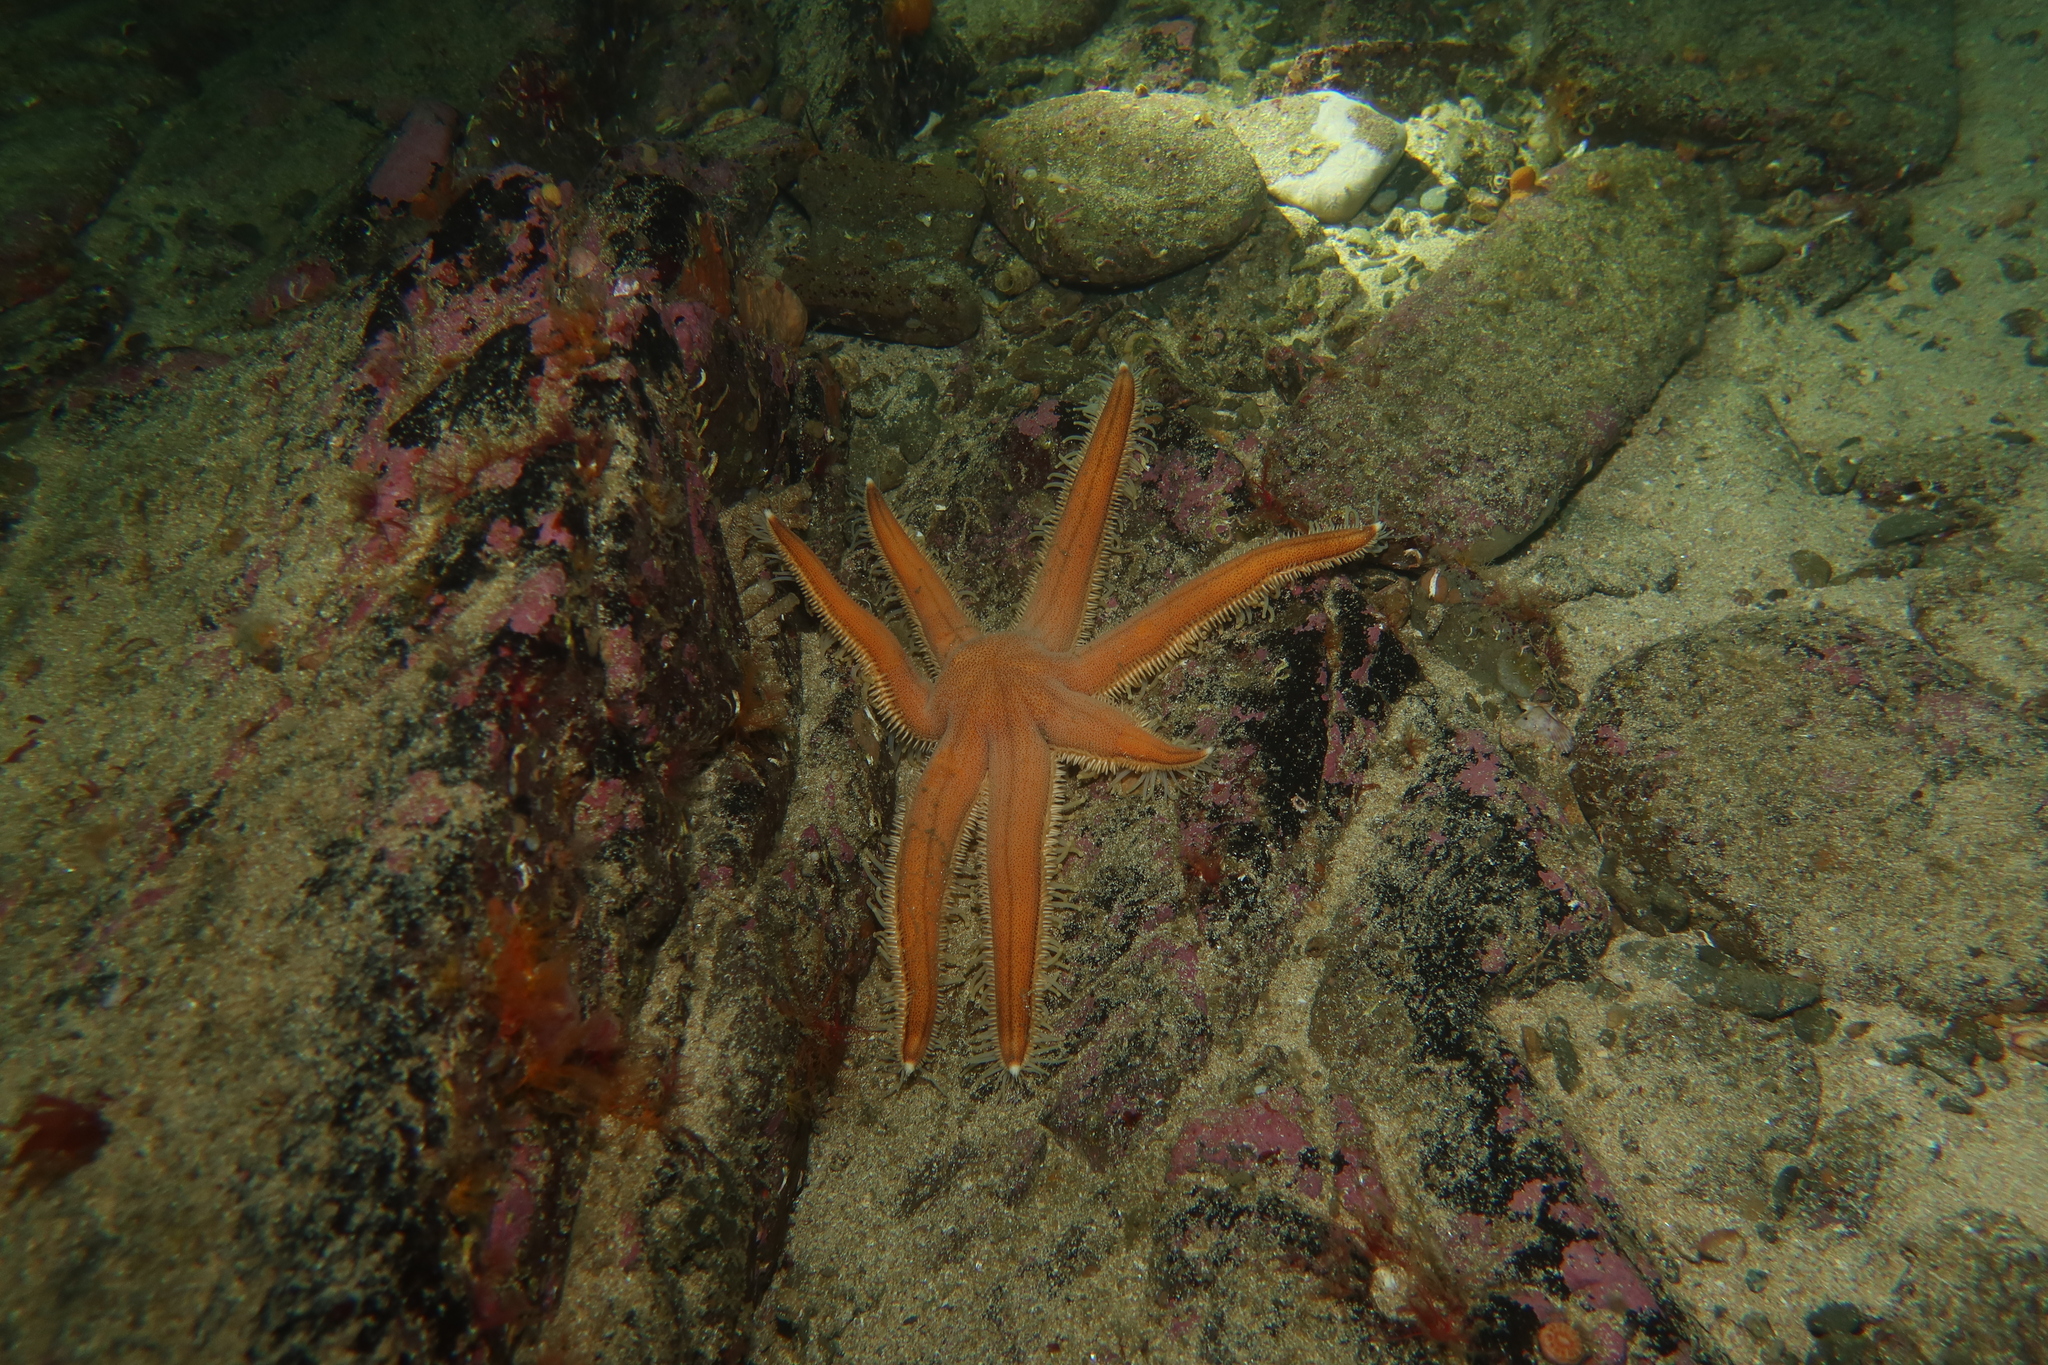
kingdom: Animalia
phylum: Echinodermata
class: Asteroidea
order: Paxillosida
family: Luidiidae
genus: Luidia
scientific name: Luidia ciliaris
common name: Seven-armed starfish
